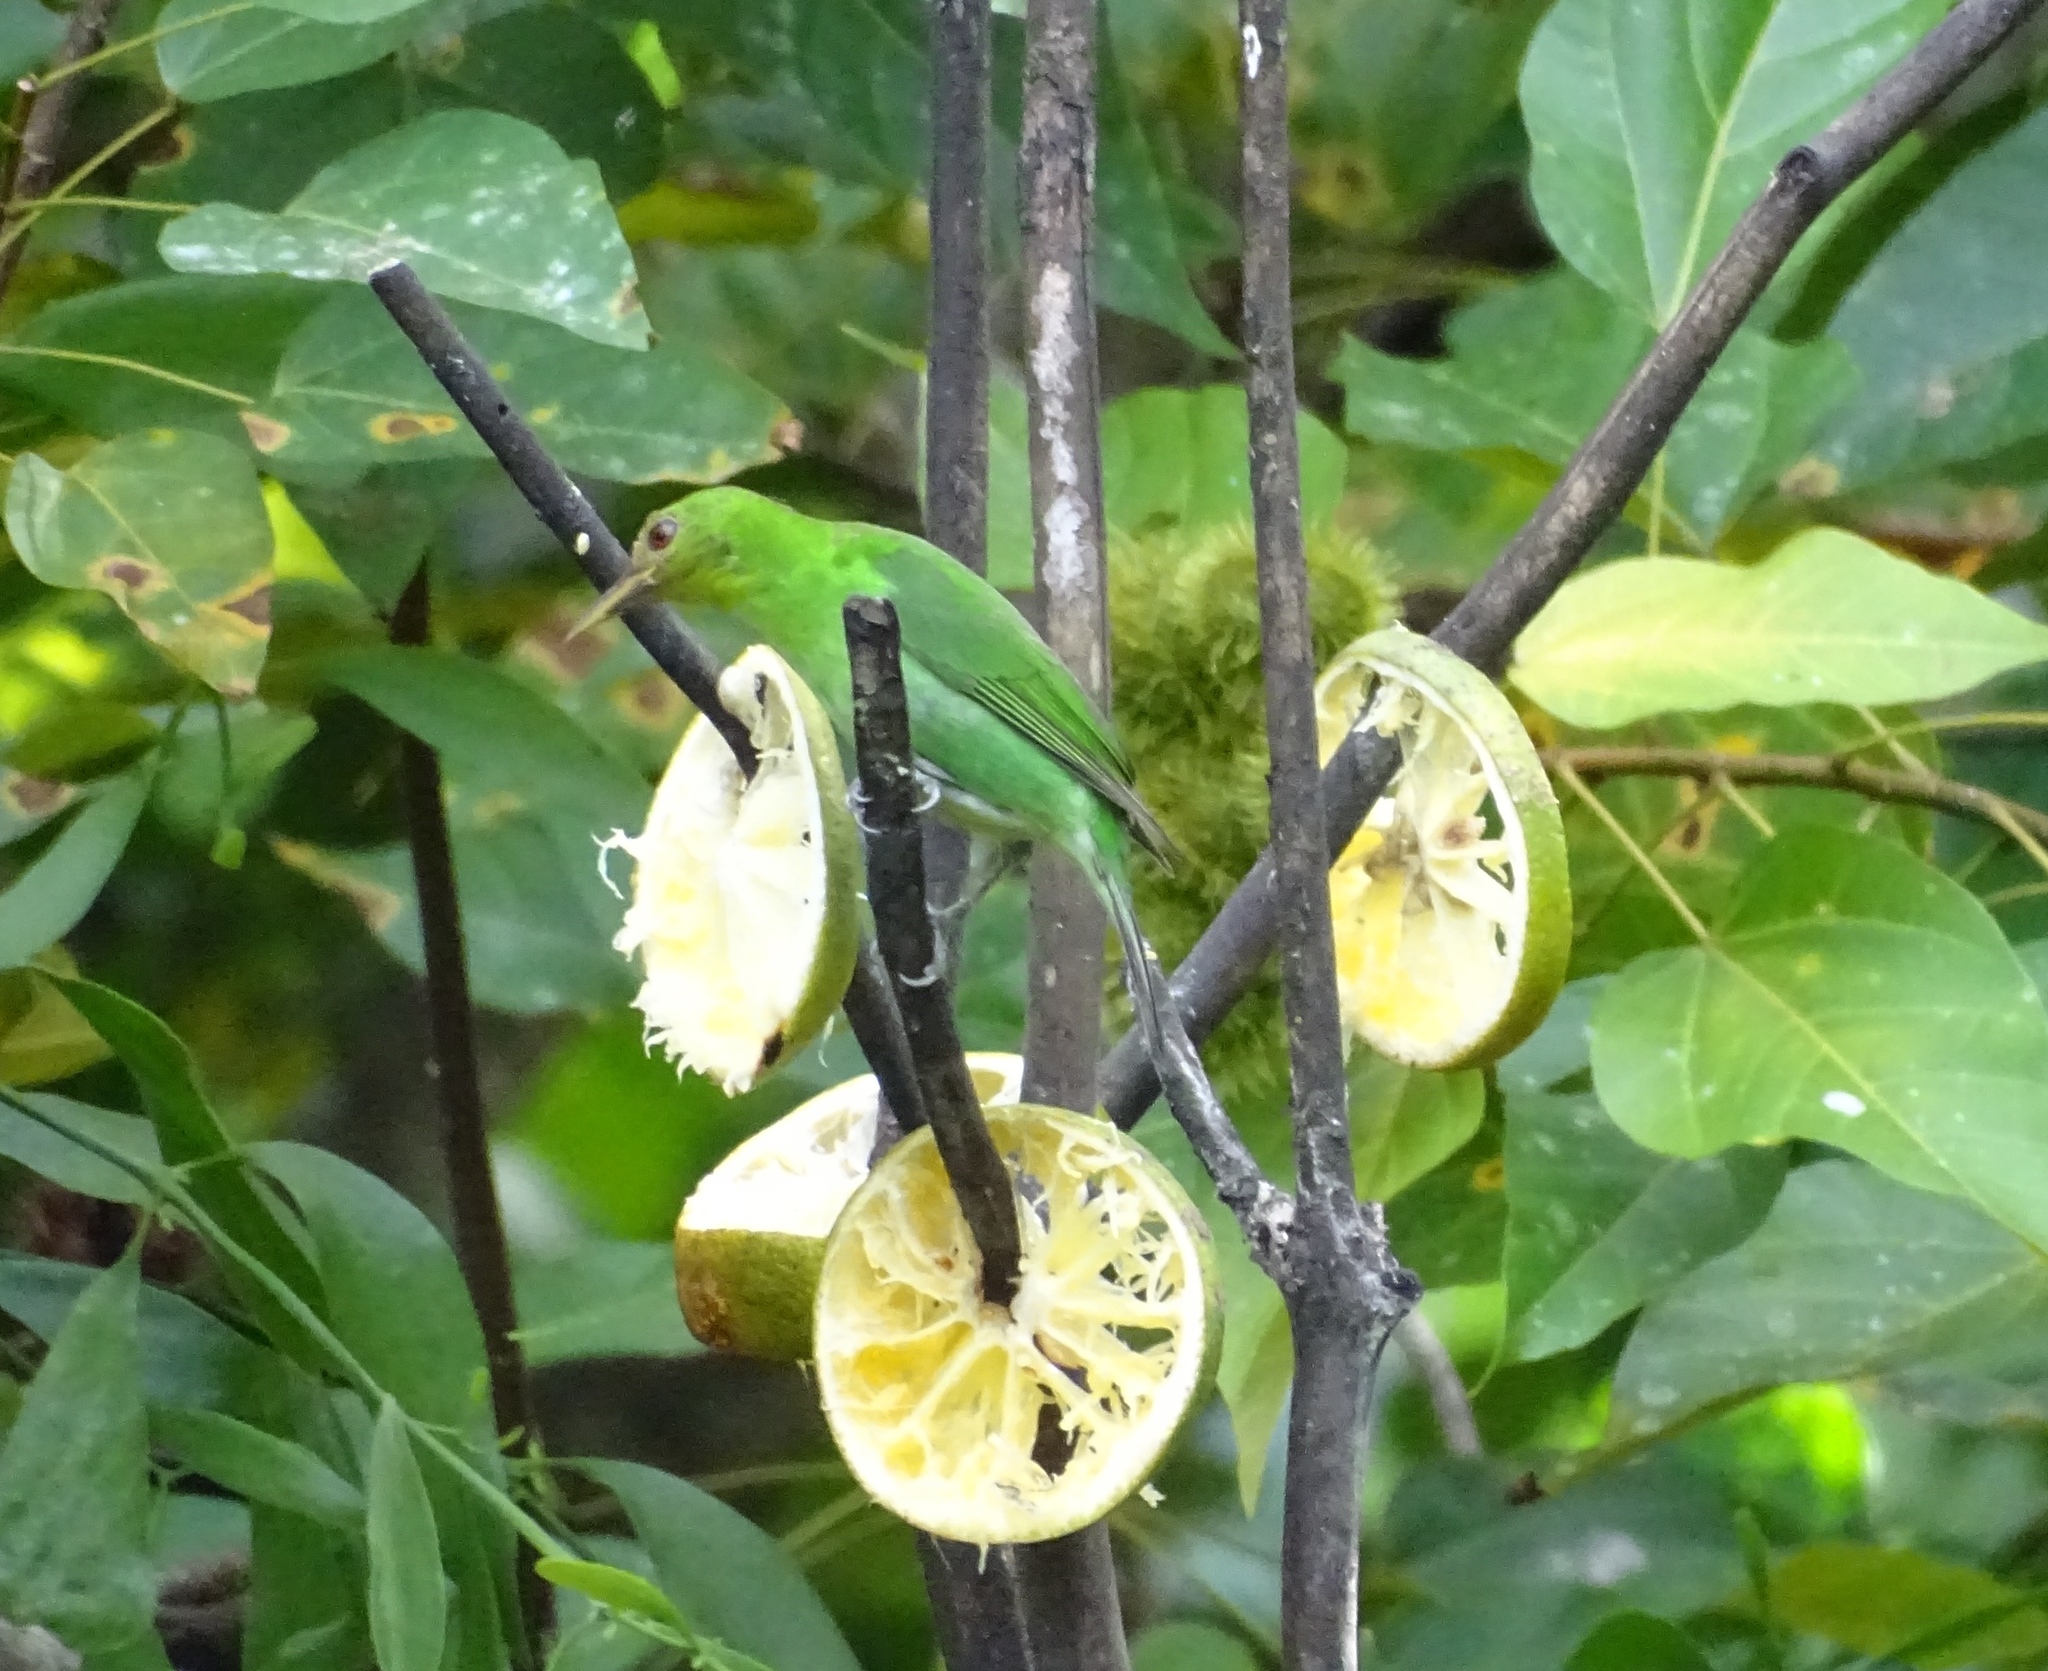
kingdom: Animalia
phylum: Chordata
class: Aves
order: Passeriformes
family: Thraupidae
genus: Chlorophanes
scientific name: Chlorophanes spiza
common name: Green honeycreeper
